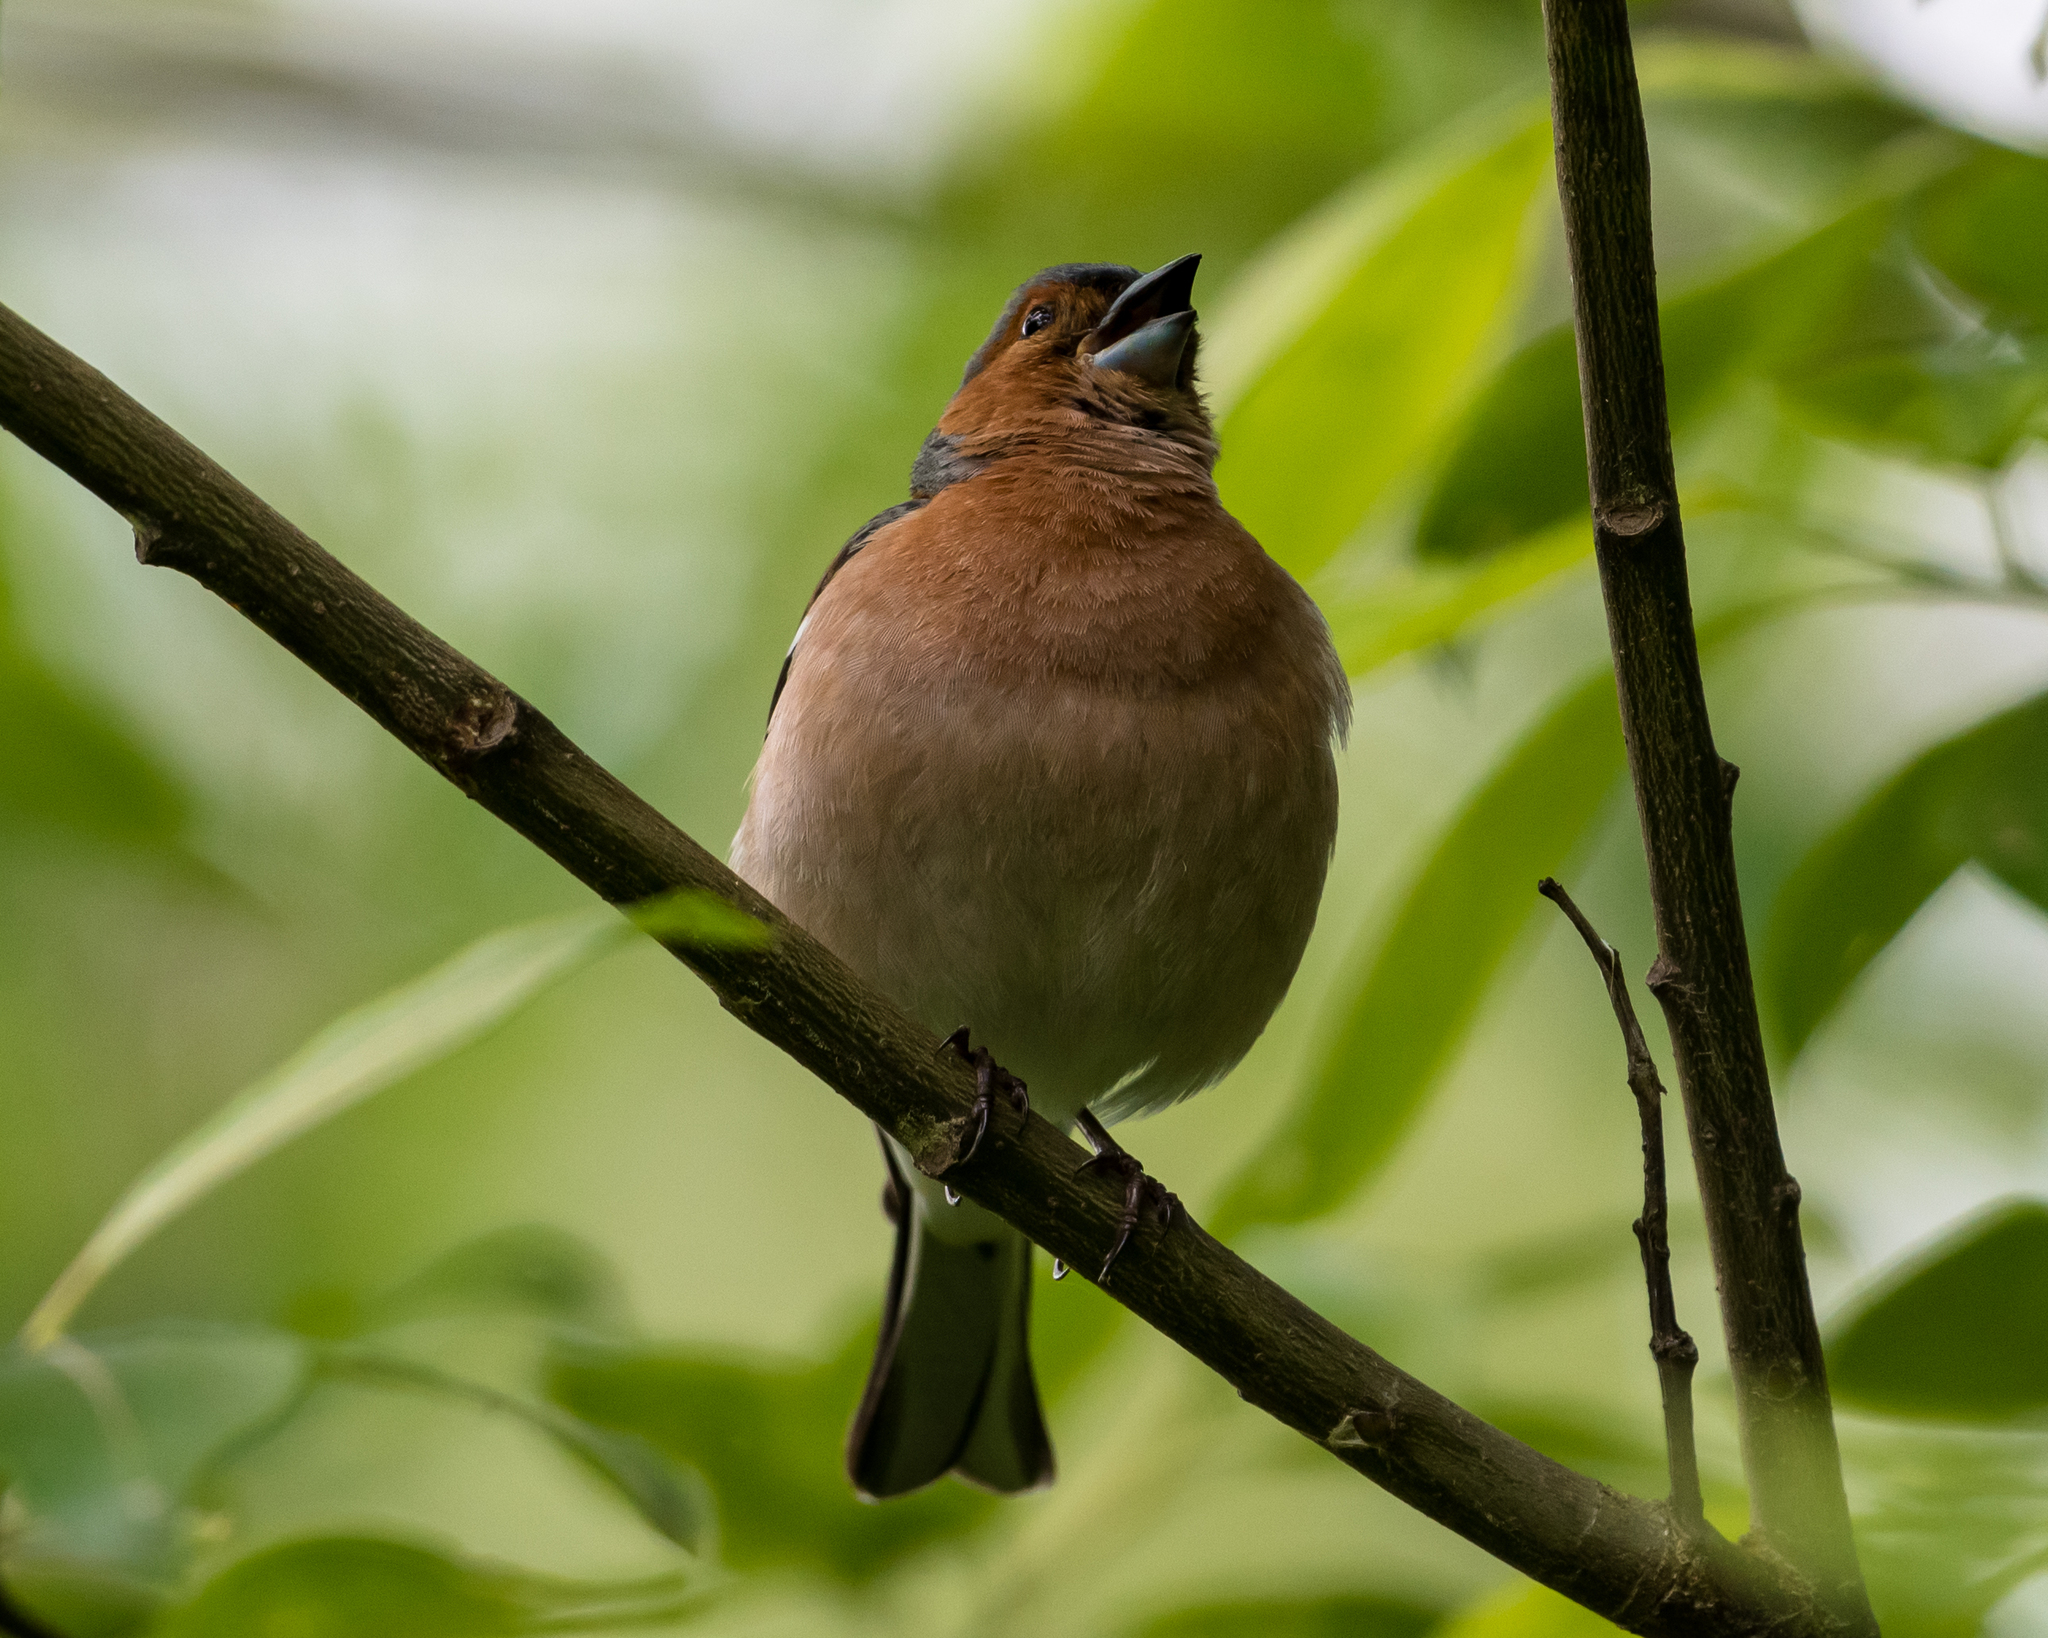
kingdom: Animalia
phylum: Chordata
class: Aves
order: Passeriformes
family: Fringillidae
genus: Fringilla
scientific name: Fringilla coelebs
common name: Common chaffinch
